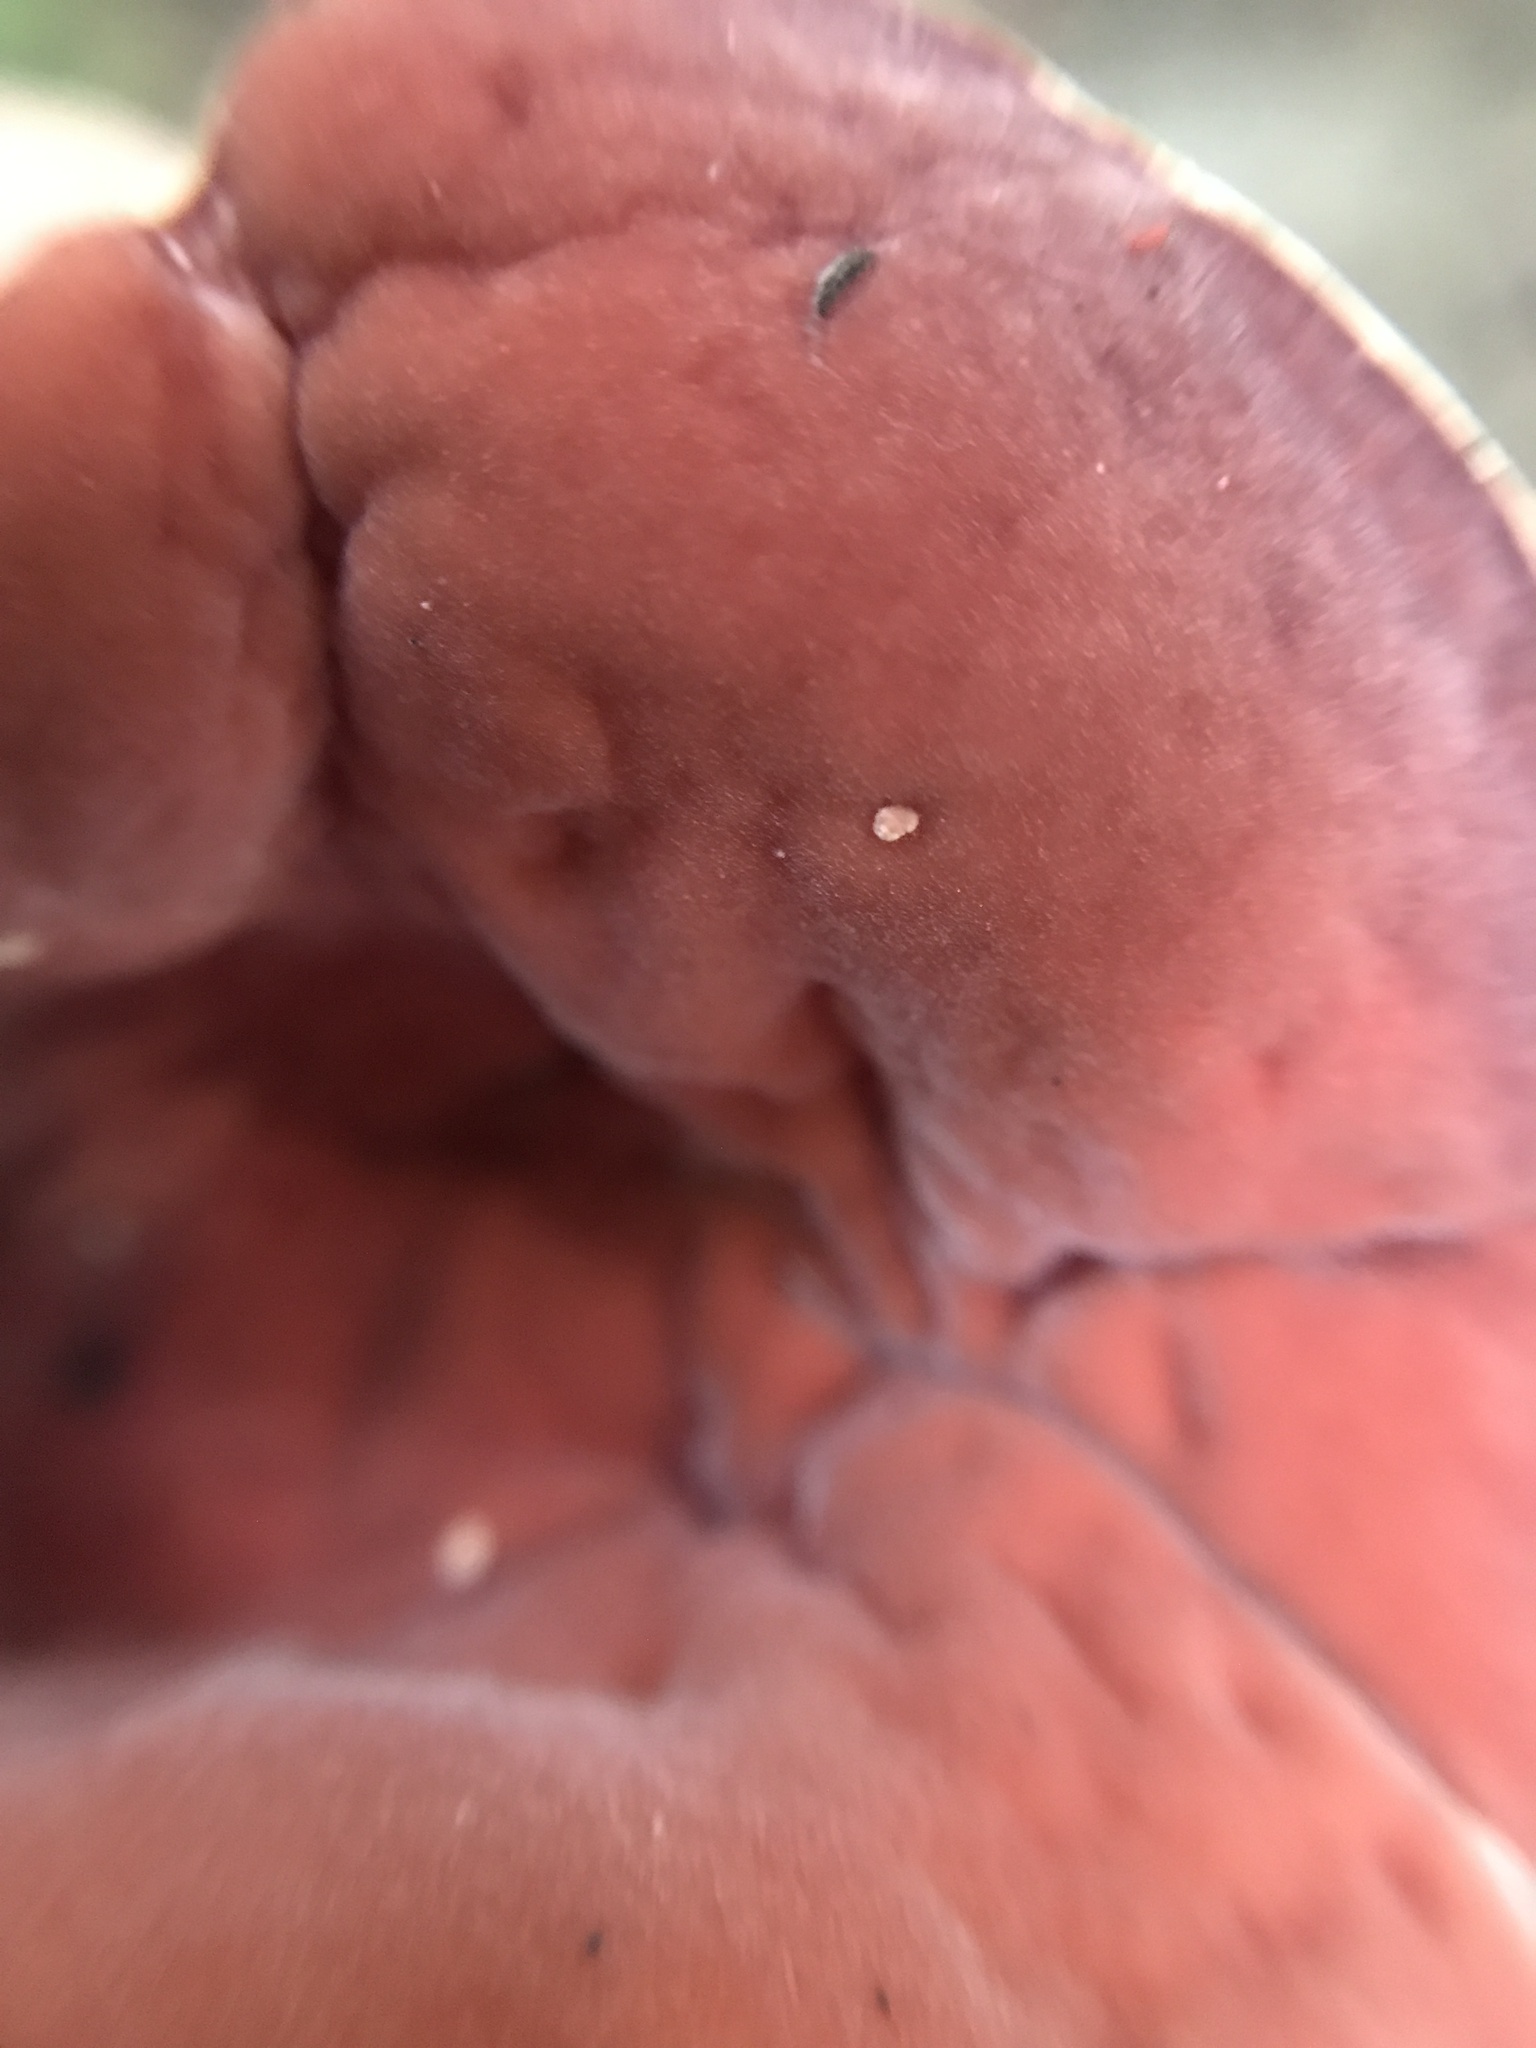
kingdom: Fungi
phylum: Ascomycota
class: Pezizomycetes
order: Pezizales
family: Sarcoscyphaceae
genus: Phillipsia
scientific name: Phillipsia domingensis
